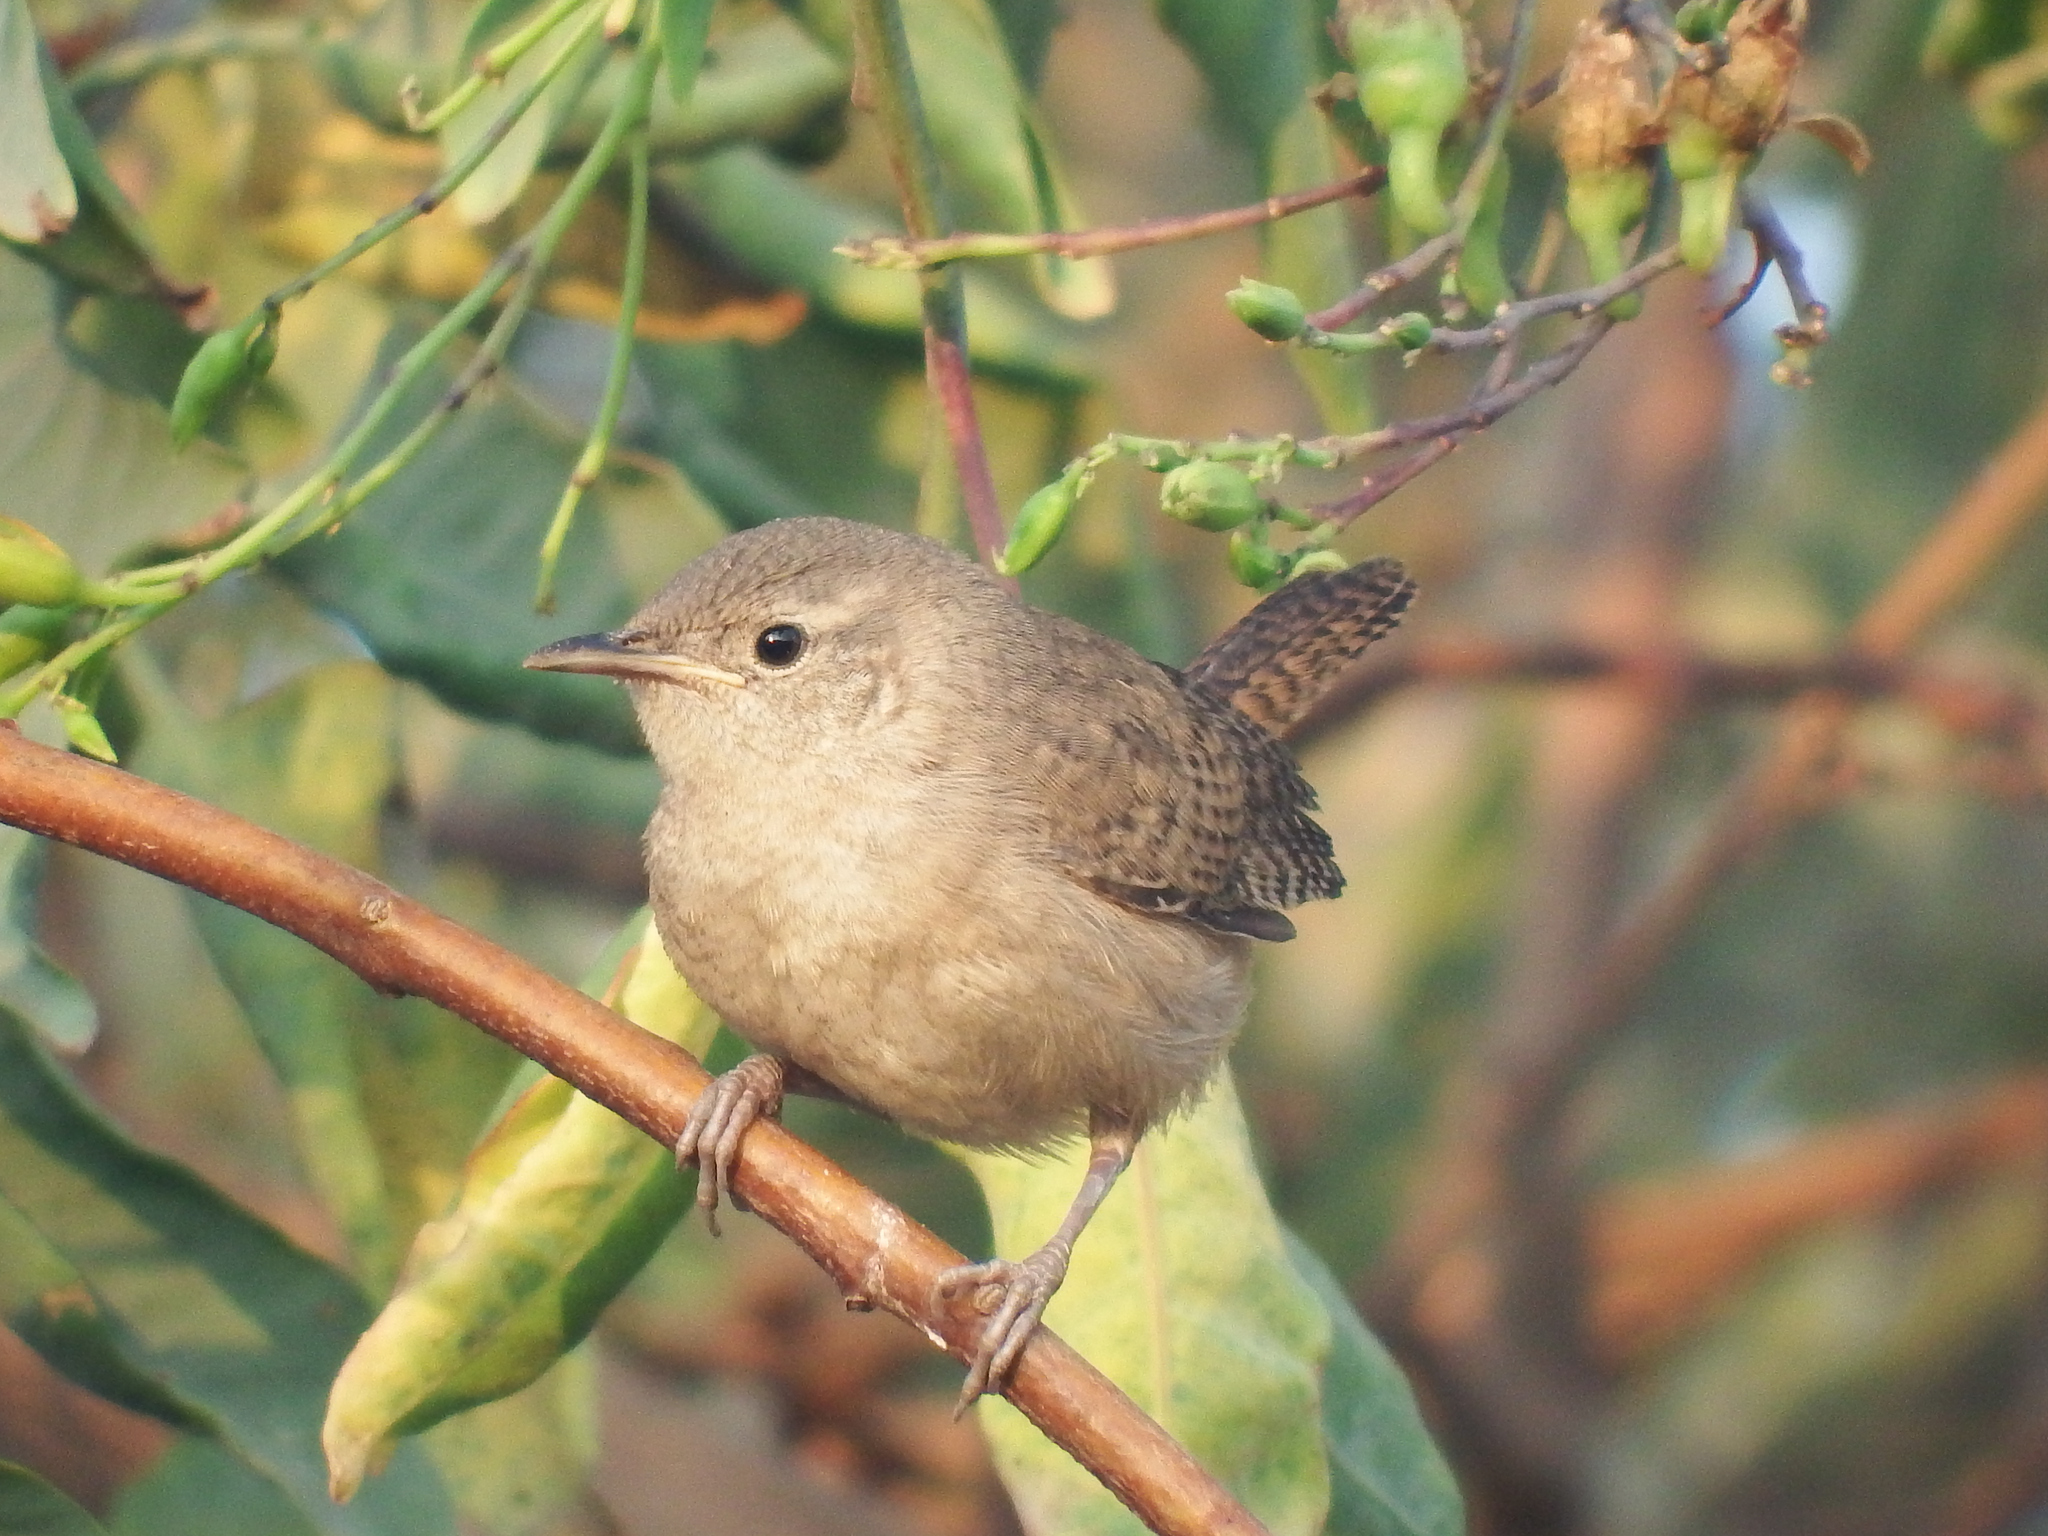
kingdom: Animalia
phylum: Chordata
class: Aves
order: Passeriformes
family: Troglodytidae
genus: Troglodytes
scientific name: Troglodytes aedon
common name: House wren
